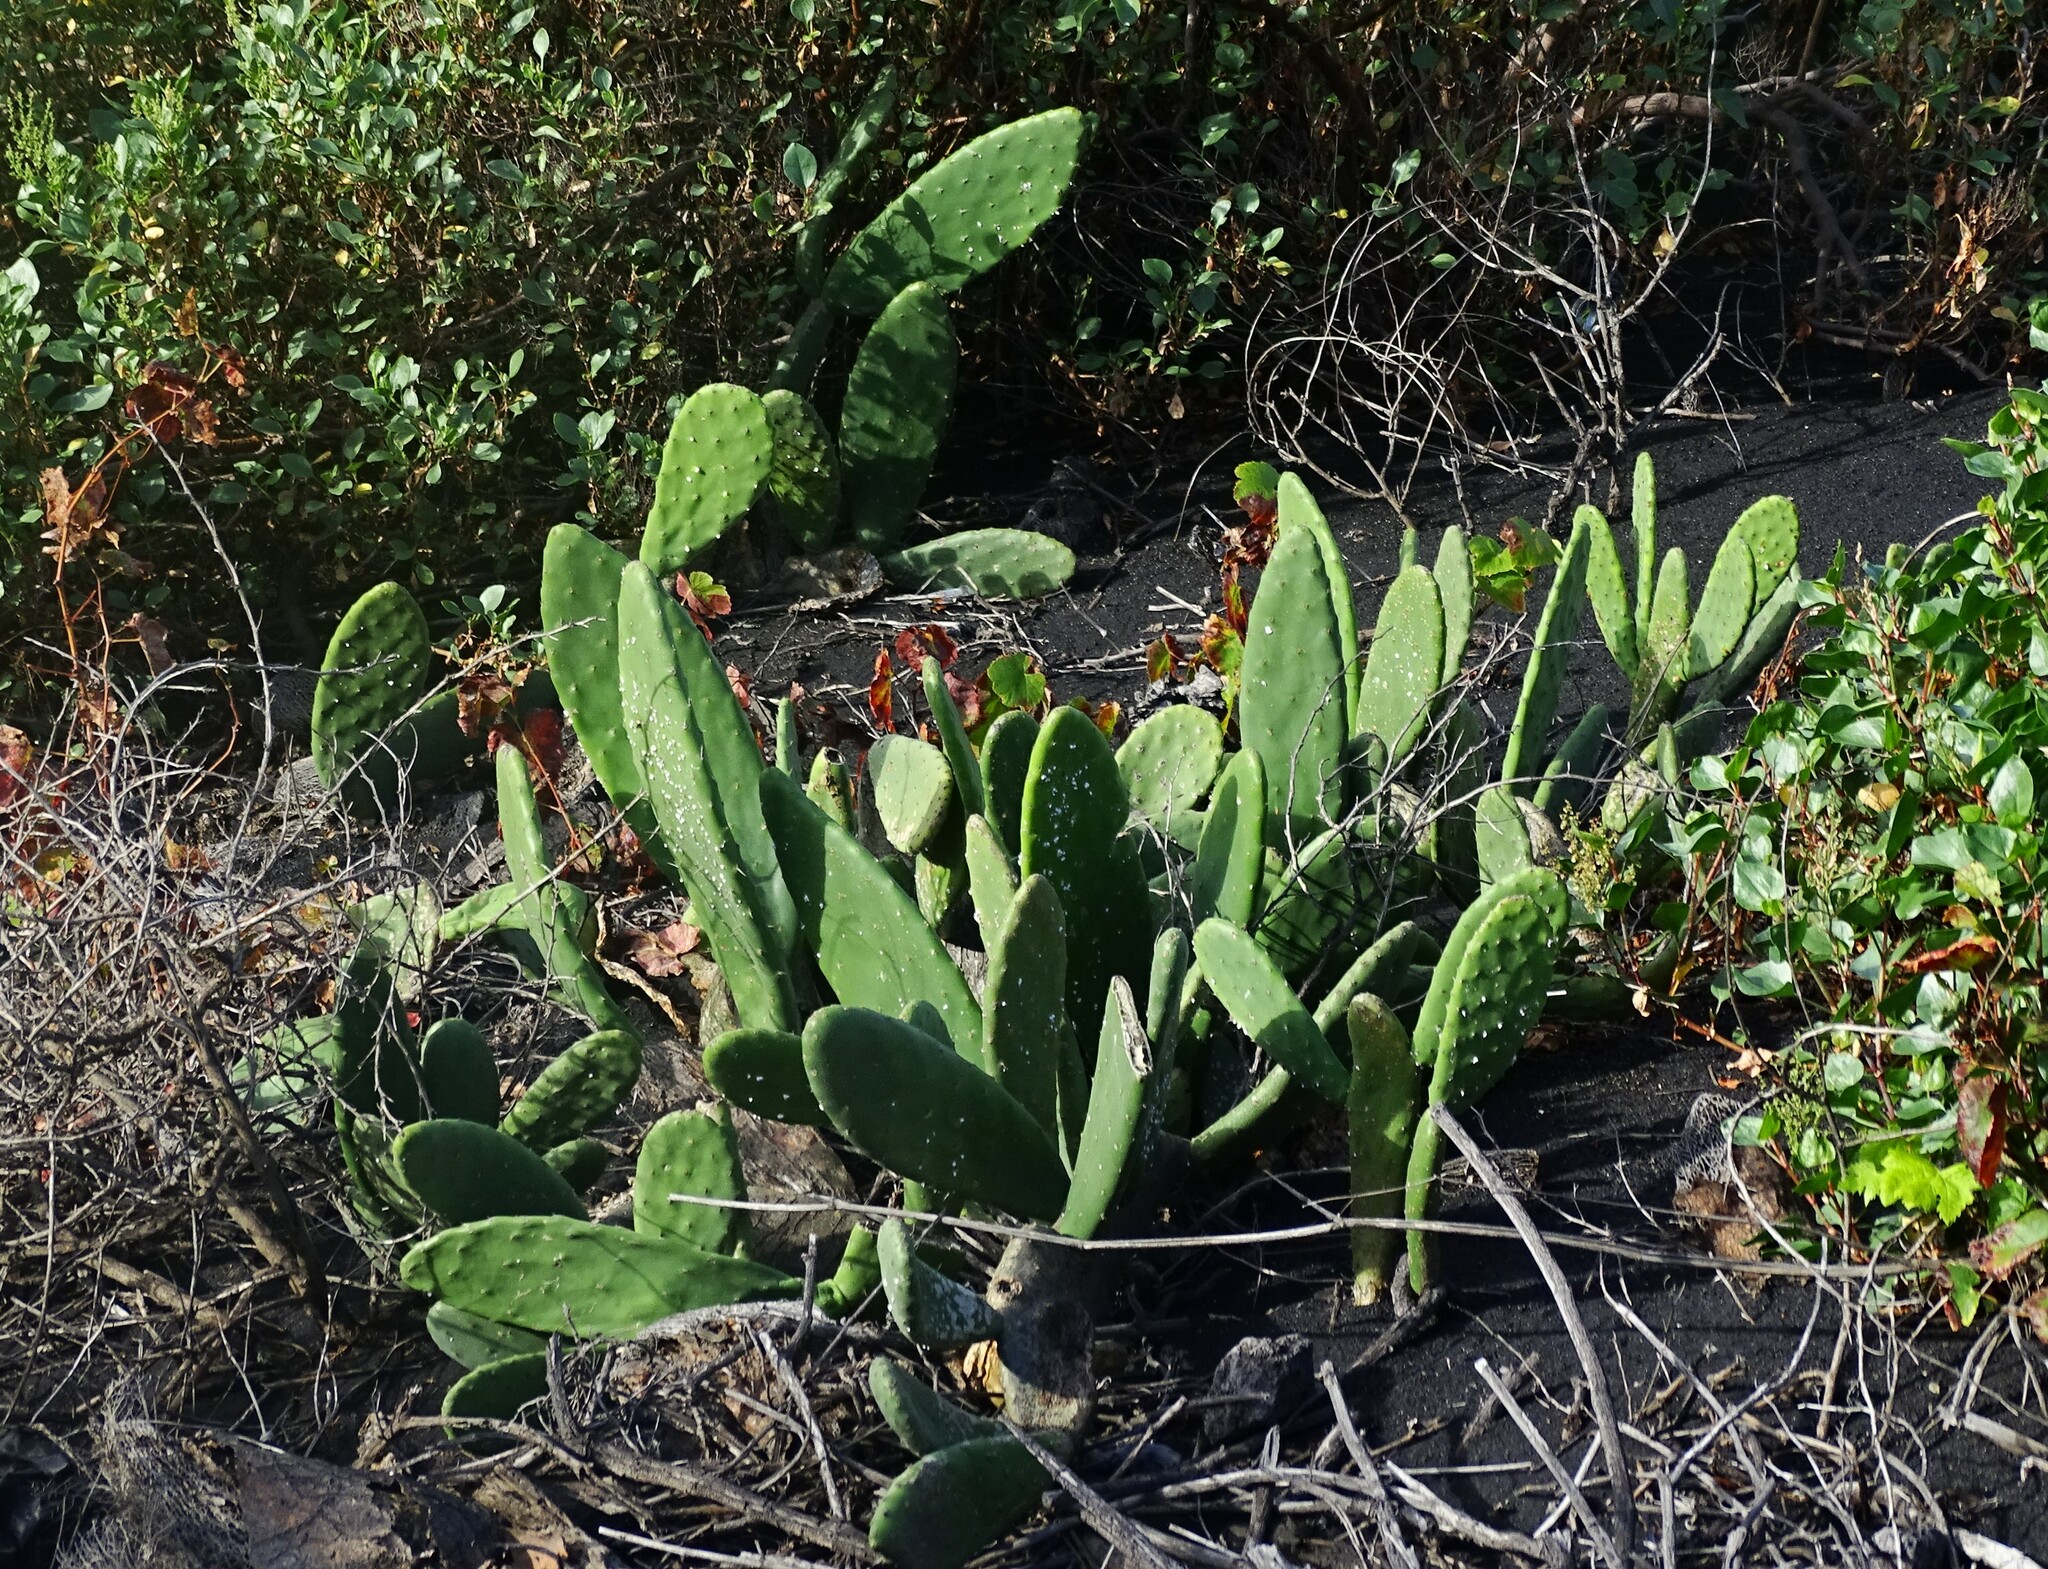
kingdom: Plantae
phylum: Tracheophyta
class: Magnoliopsida
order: Caryophyllales
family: Cactaceae
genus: Opuntia
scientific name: Opuntia ficus-indica
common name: Barbary fig
